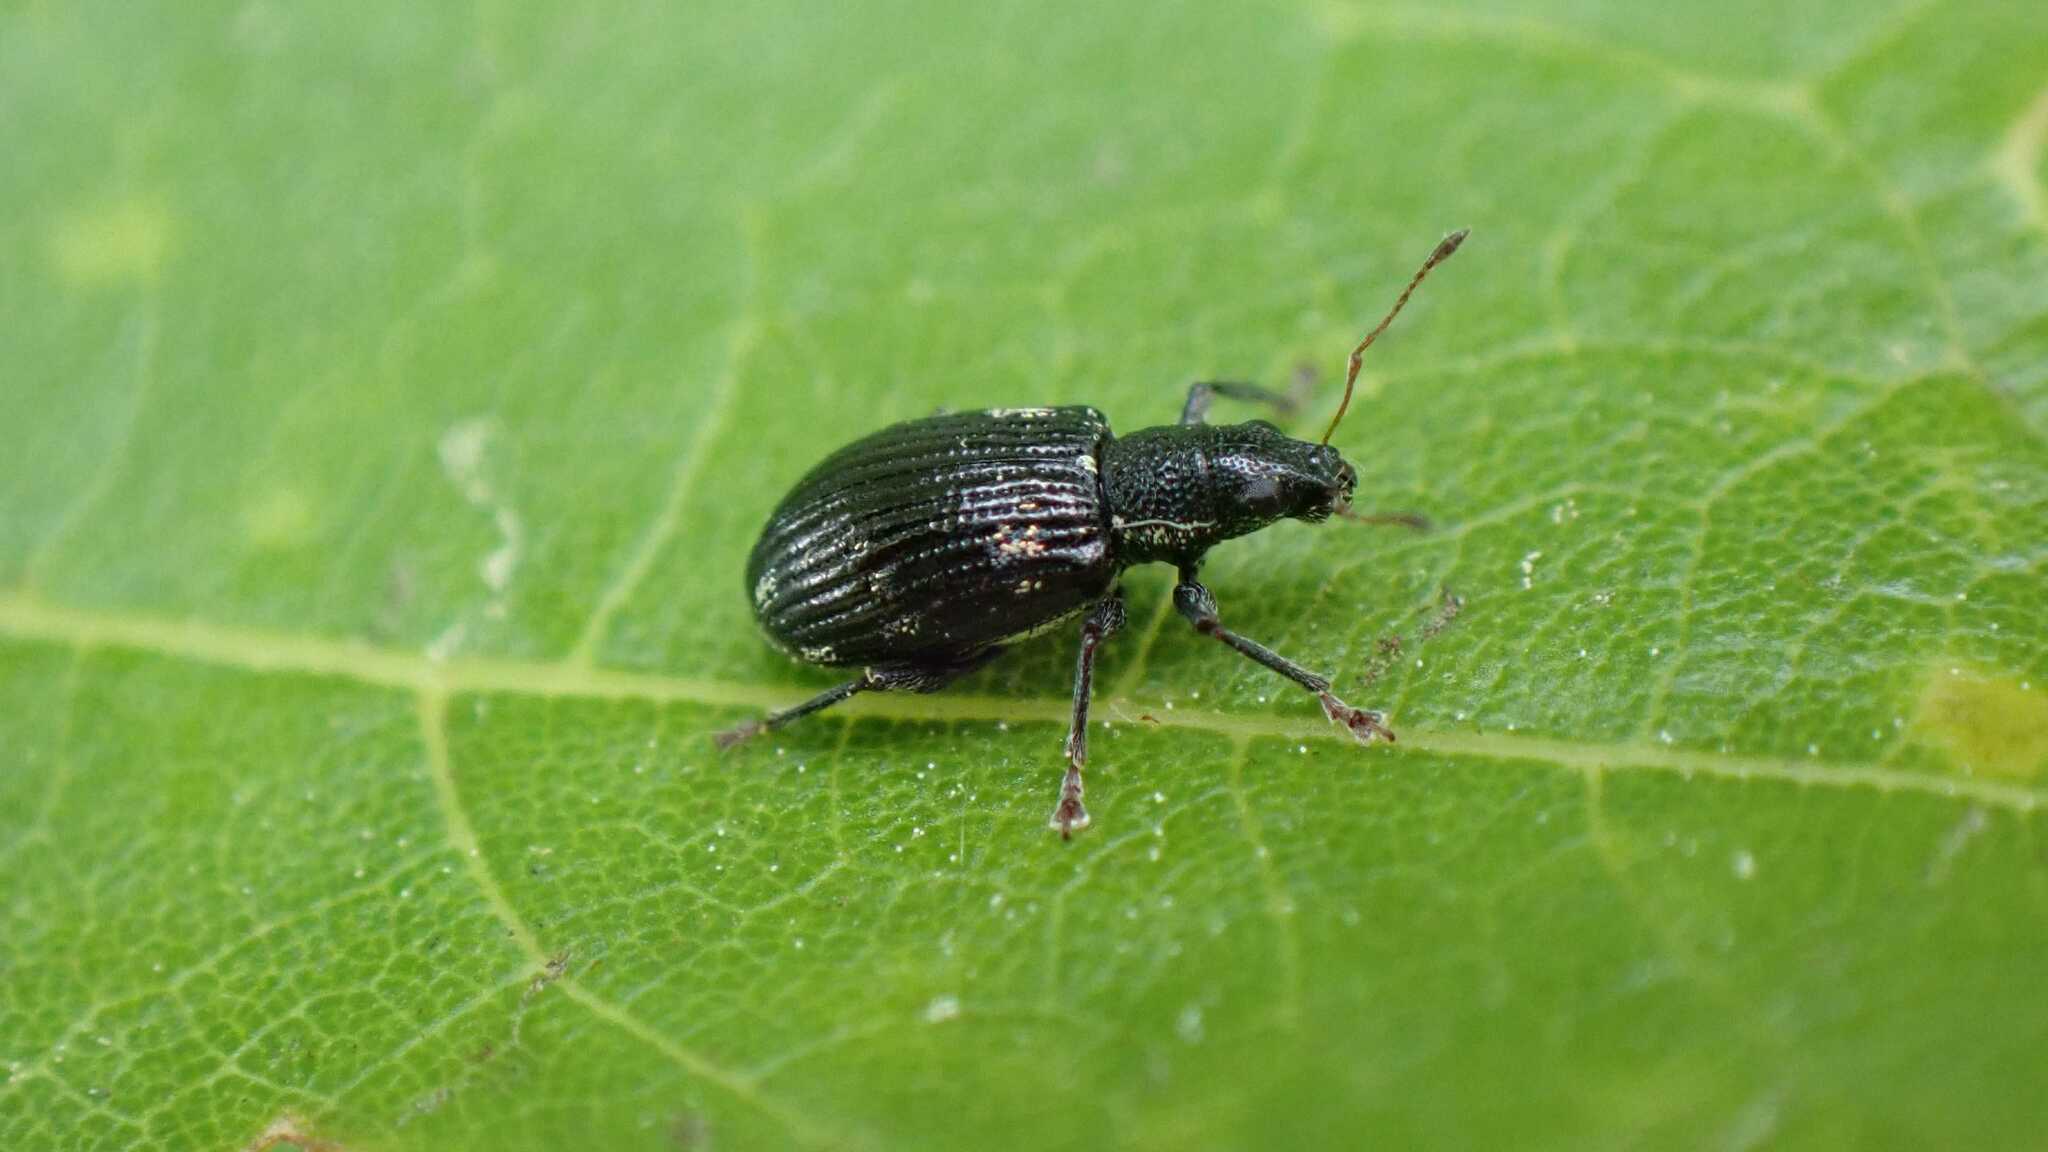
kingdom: Animalia
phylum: Arthropoda
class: Insecta
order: Coleoptera
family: Curculionidae
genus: Polydrusus
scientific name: Polydrusus picus
